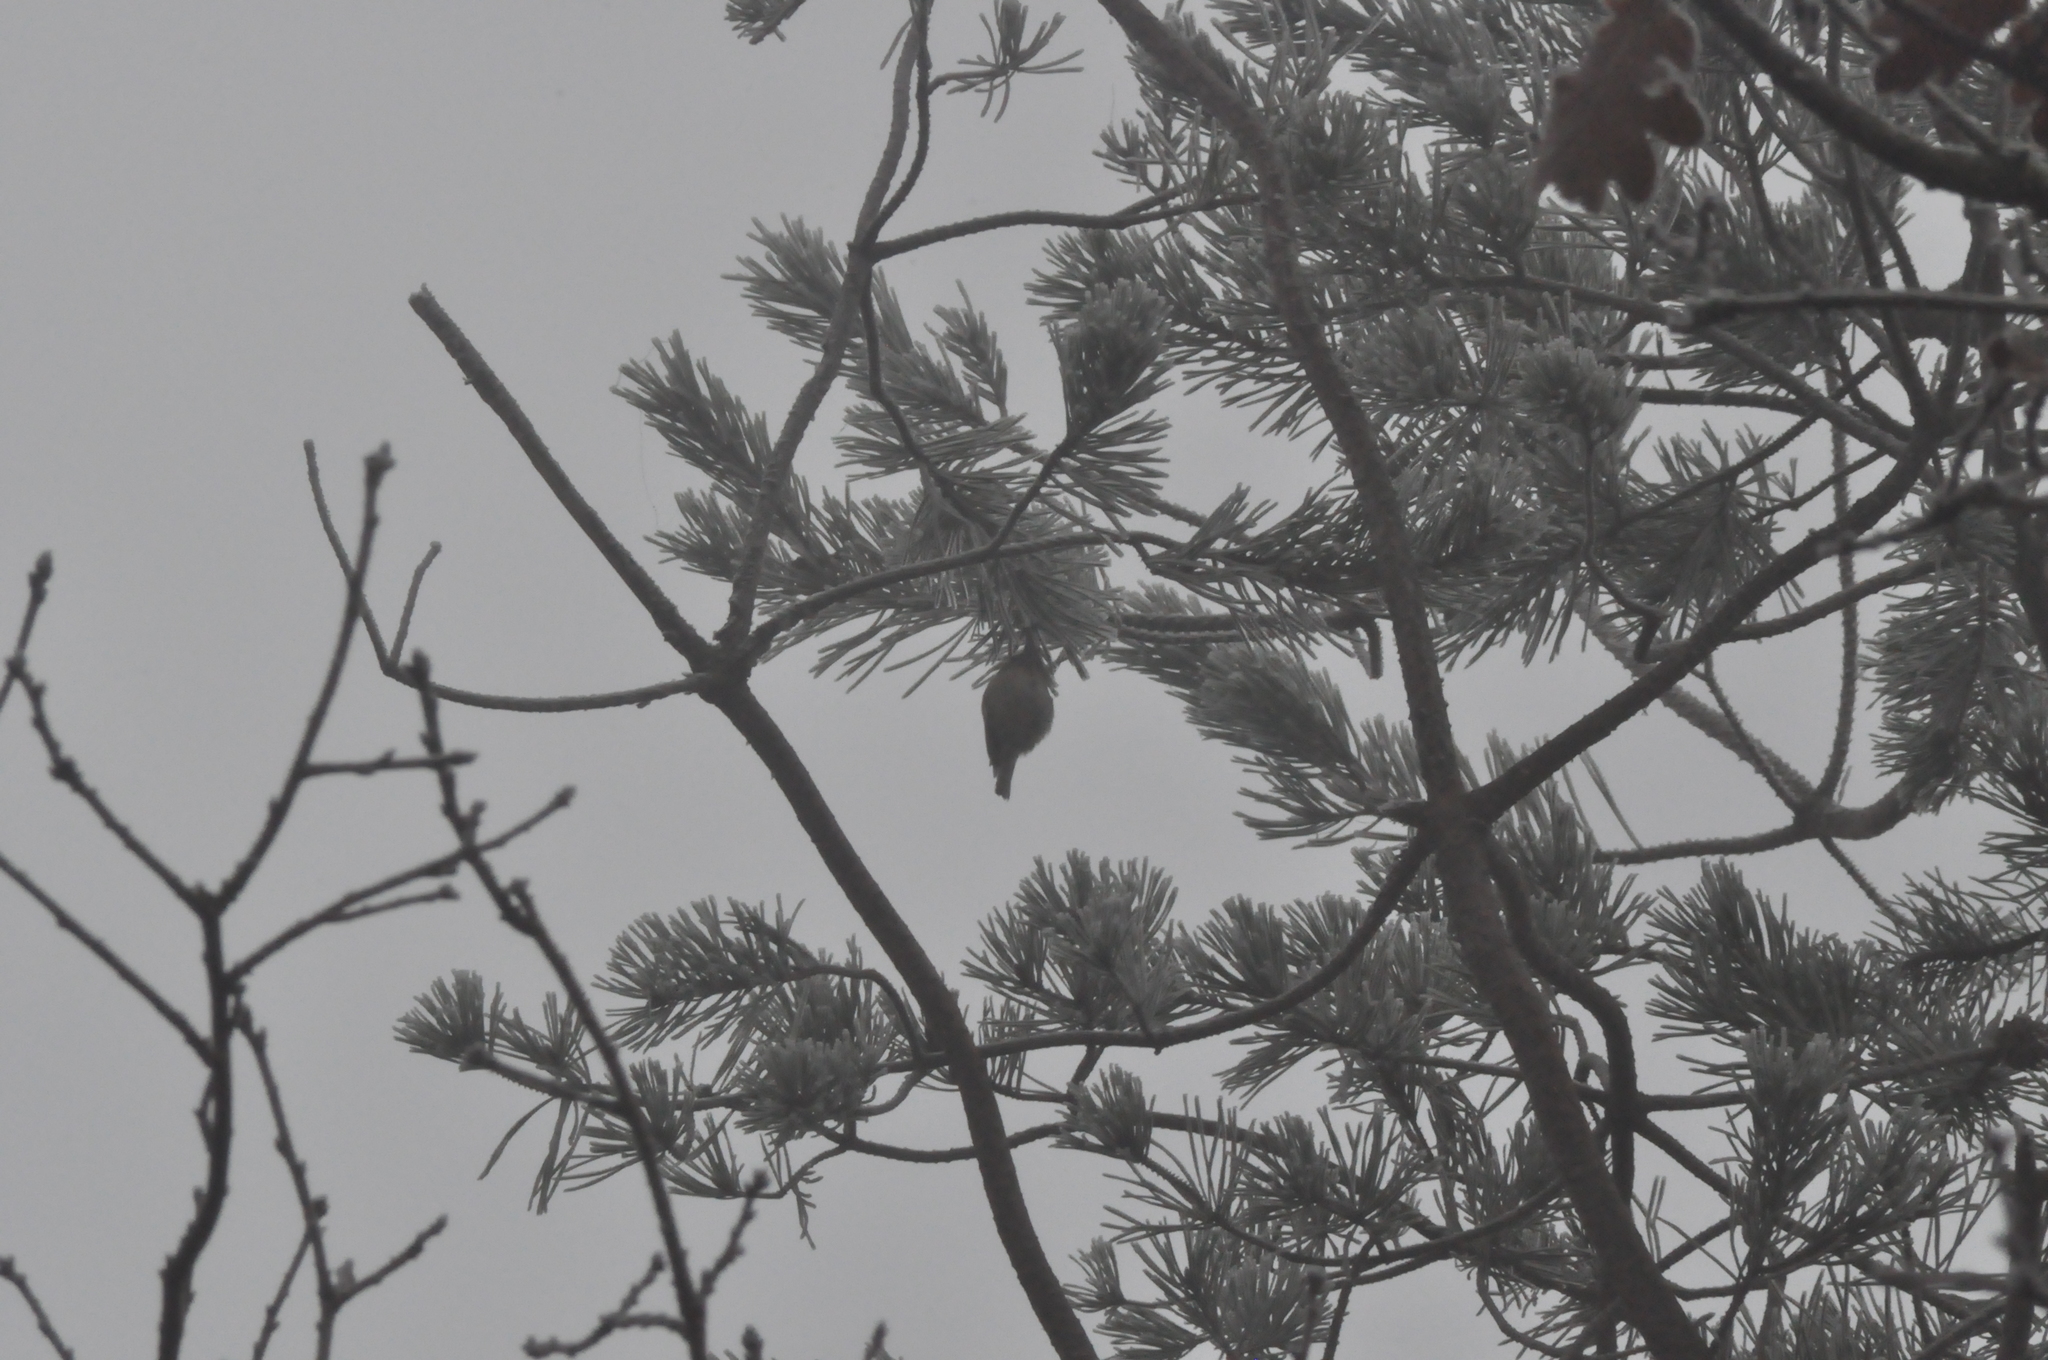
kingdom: Animalia
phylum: Chordata
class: Aves
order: Passeriformes
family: Regulidae
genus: Regulus
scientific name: Regulus regulus
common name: Goldcrest
